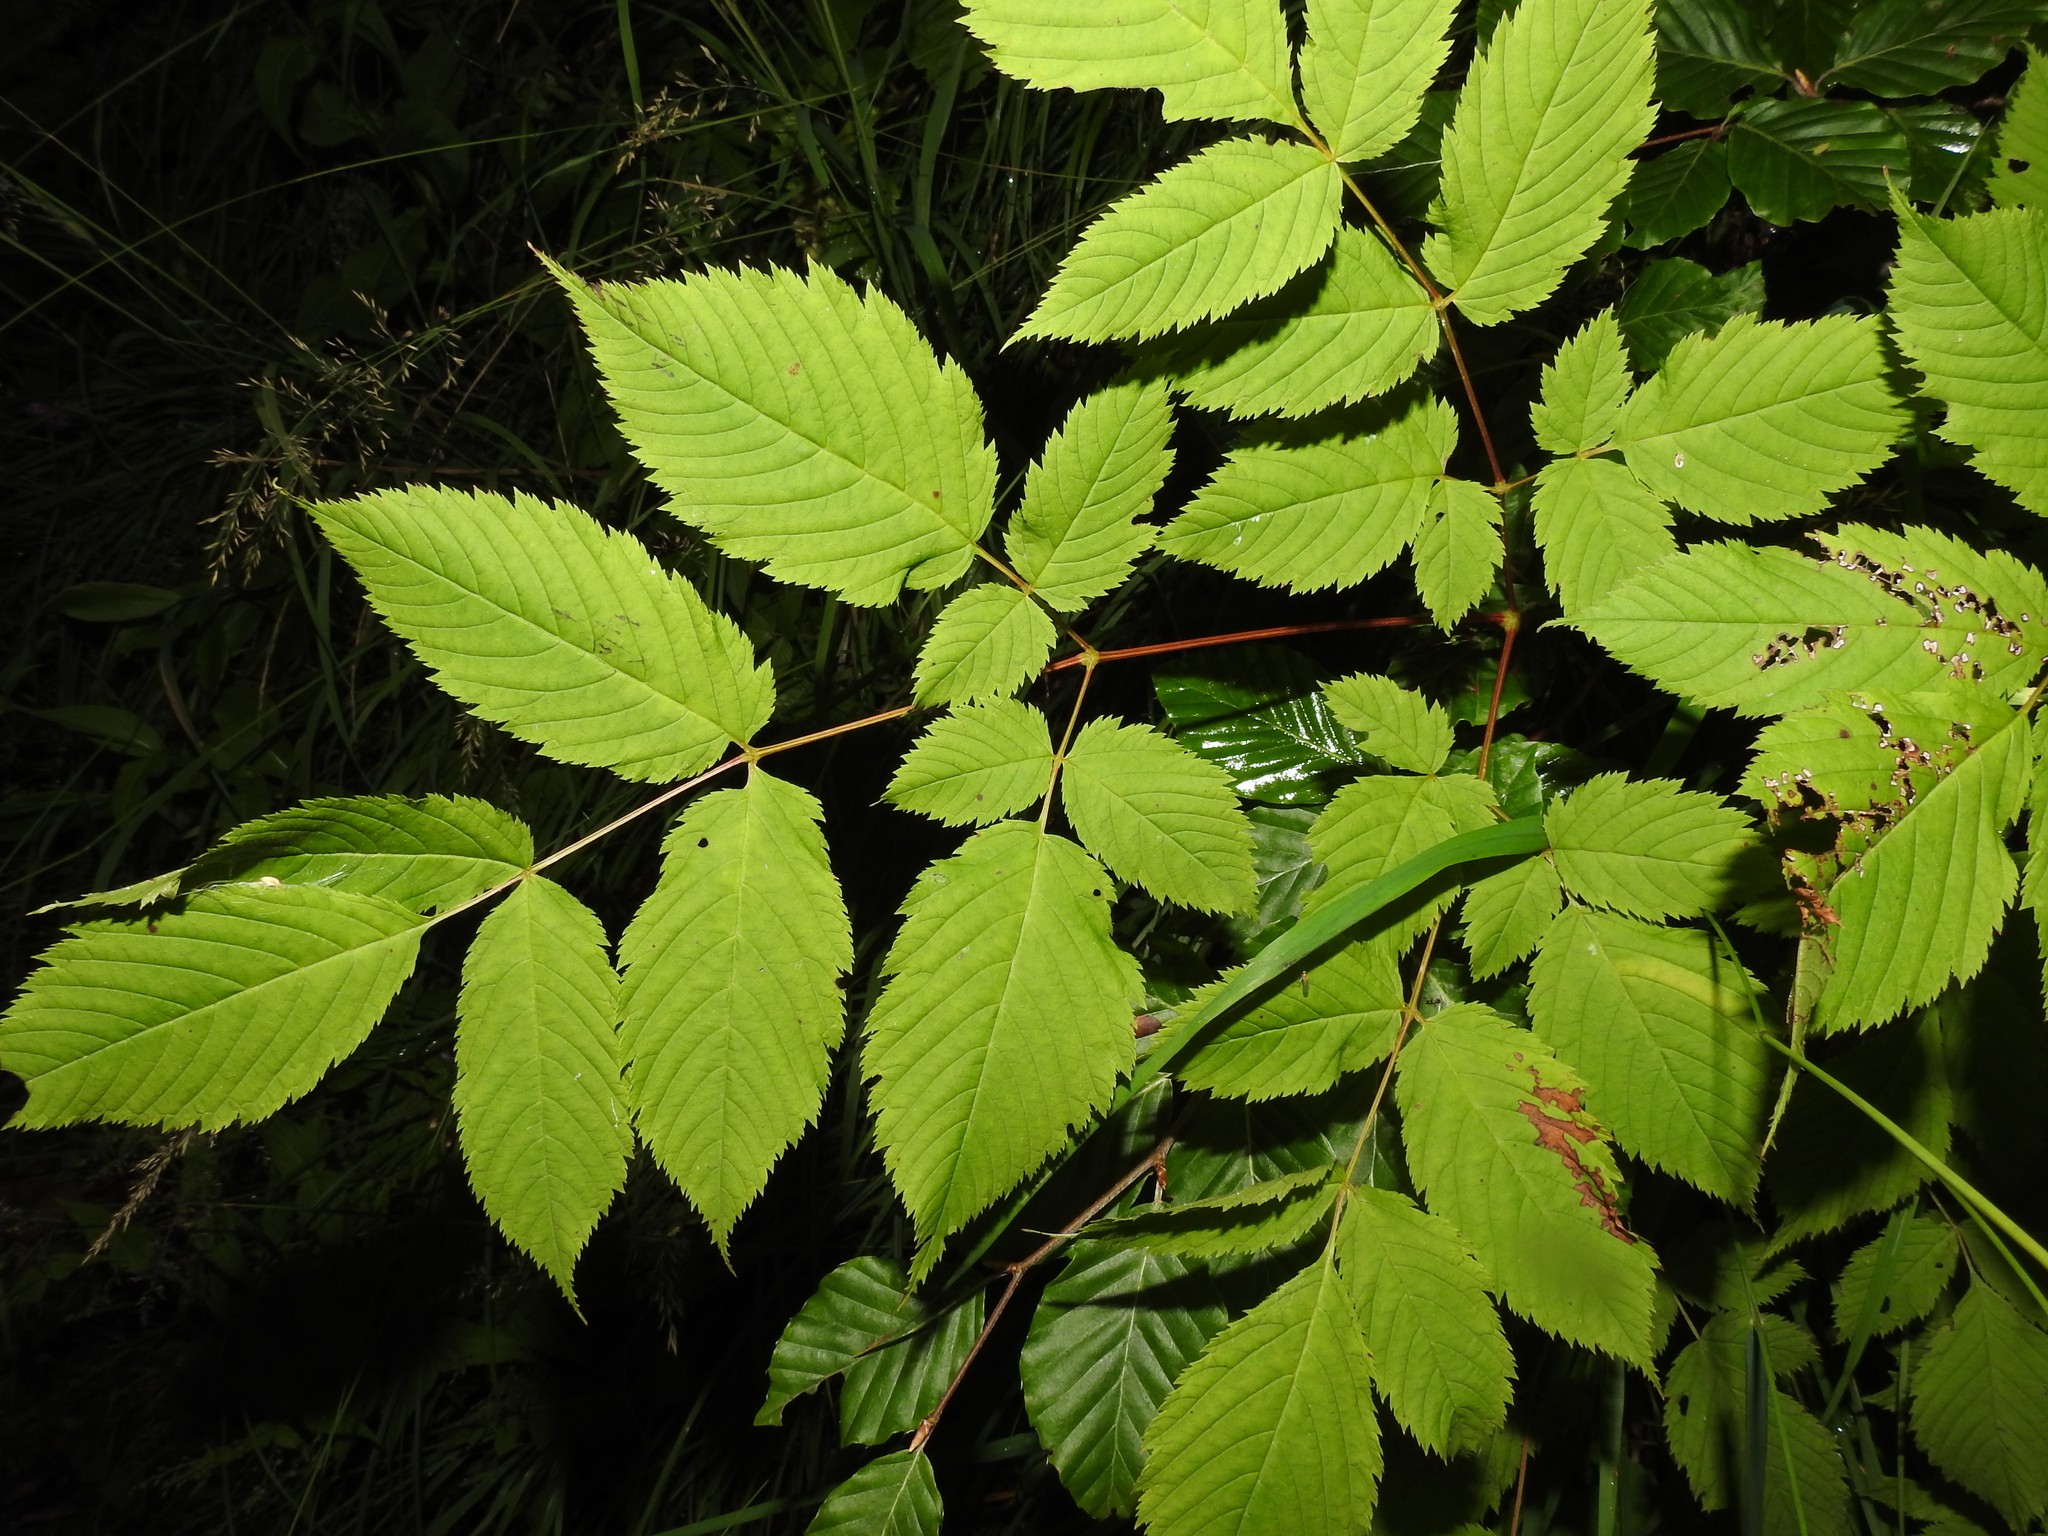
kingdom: Plantae
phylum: Tracheophyta
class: Magnoliopsida
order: Rosales
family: Rosaceae
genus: Aruncus
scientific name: Aruncus dioicus
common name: Buck's-beard
